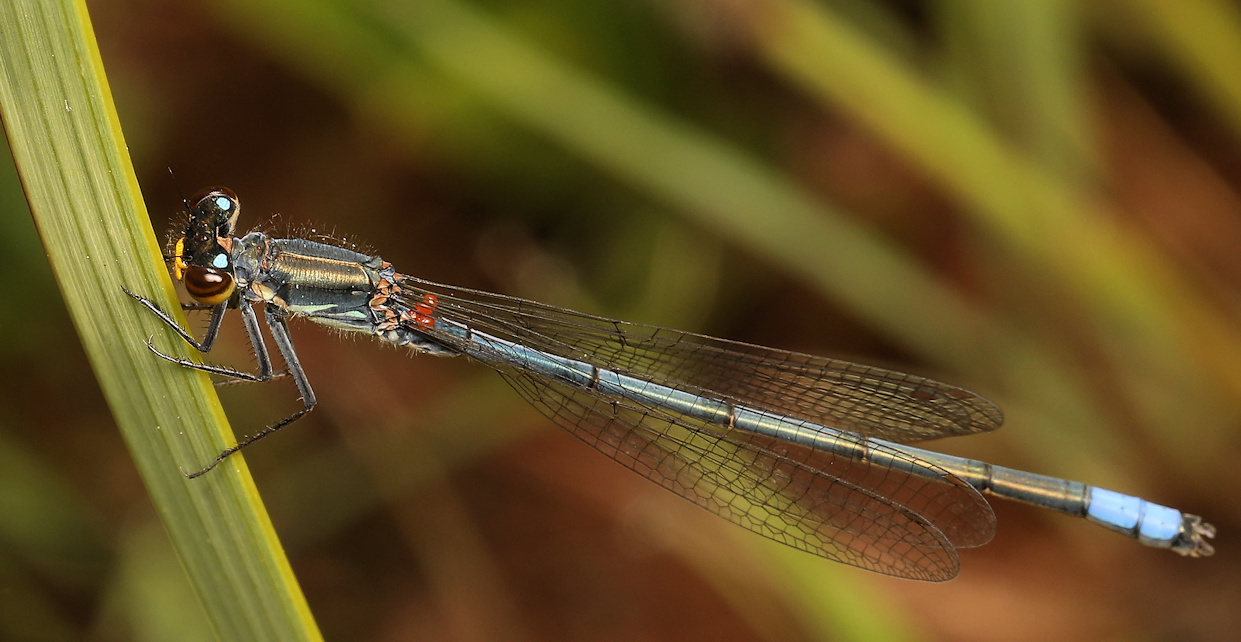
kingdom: Animalia
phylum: Arthropoda
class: Insecta
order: Odonata
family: Coenagrionidae
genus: Pseudagrion
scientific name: Pseudagrion citricola
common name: Yellow-faced sprite
